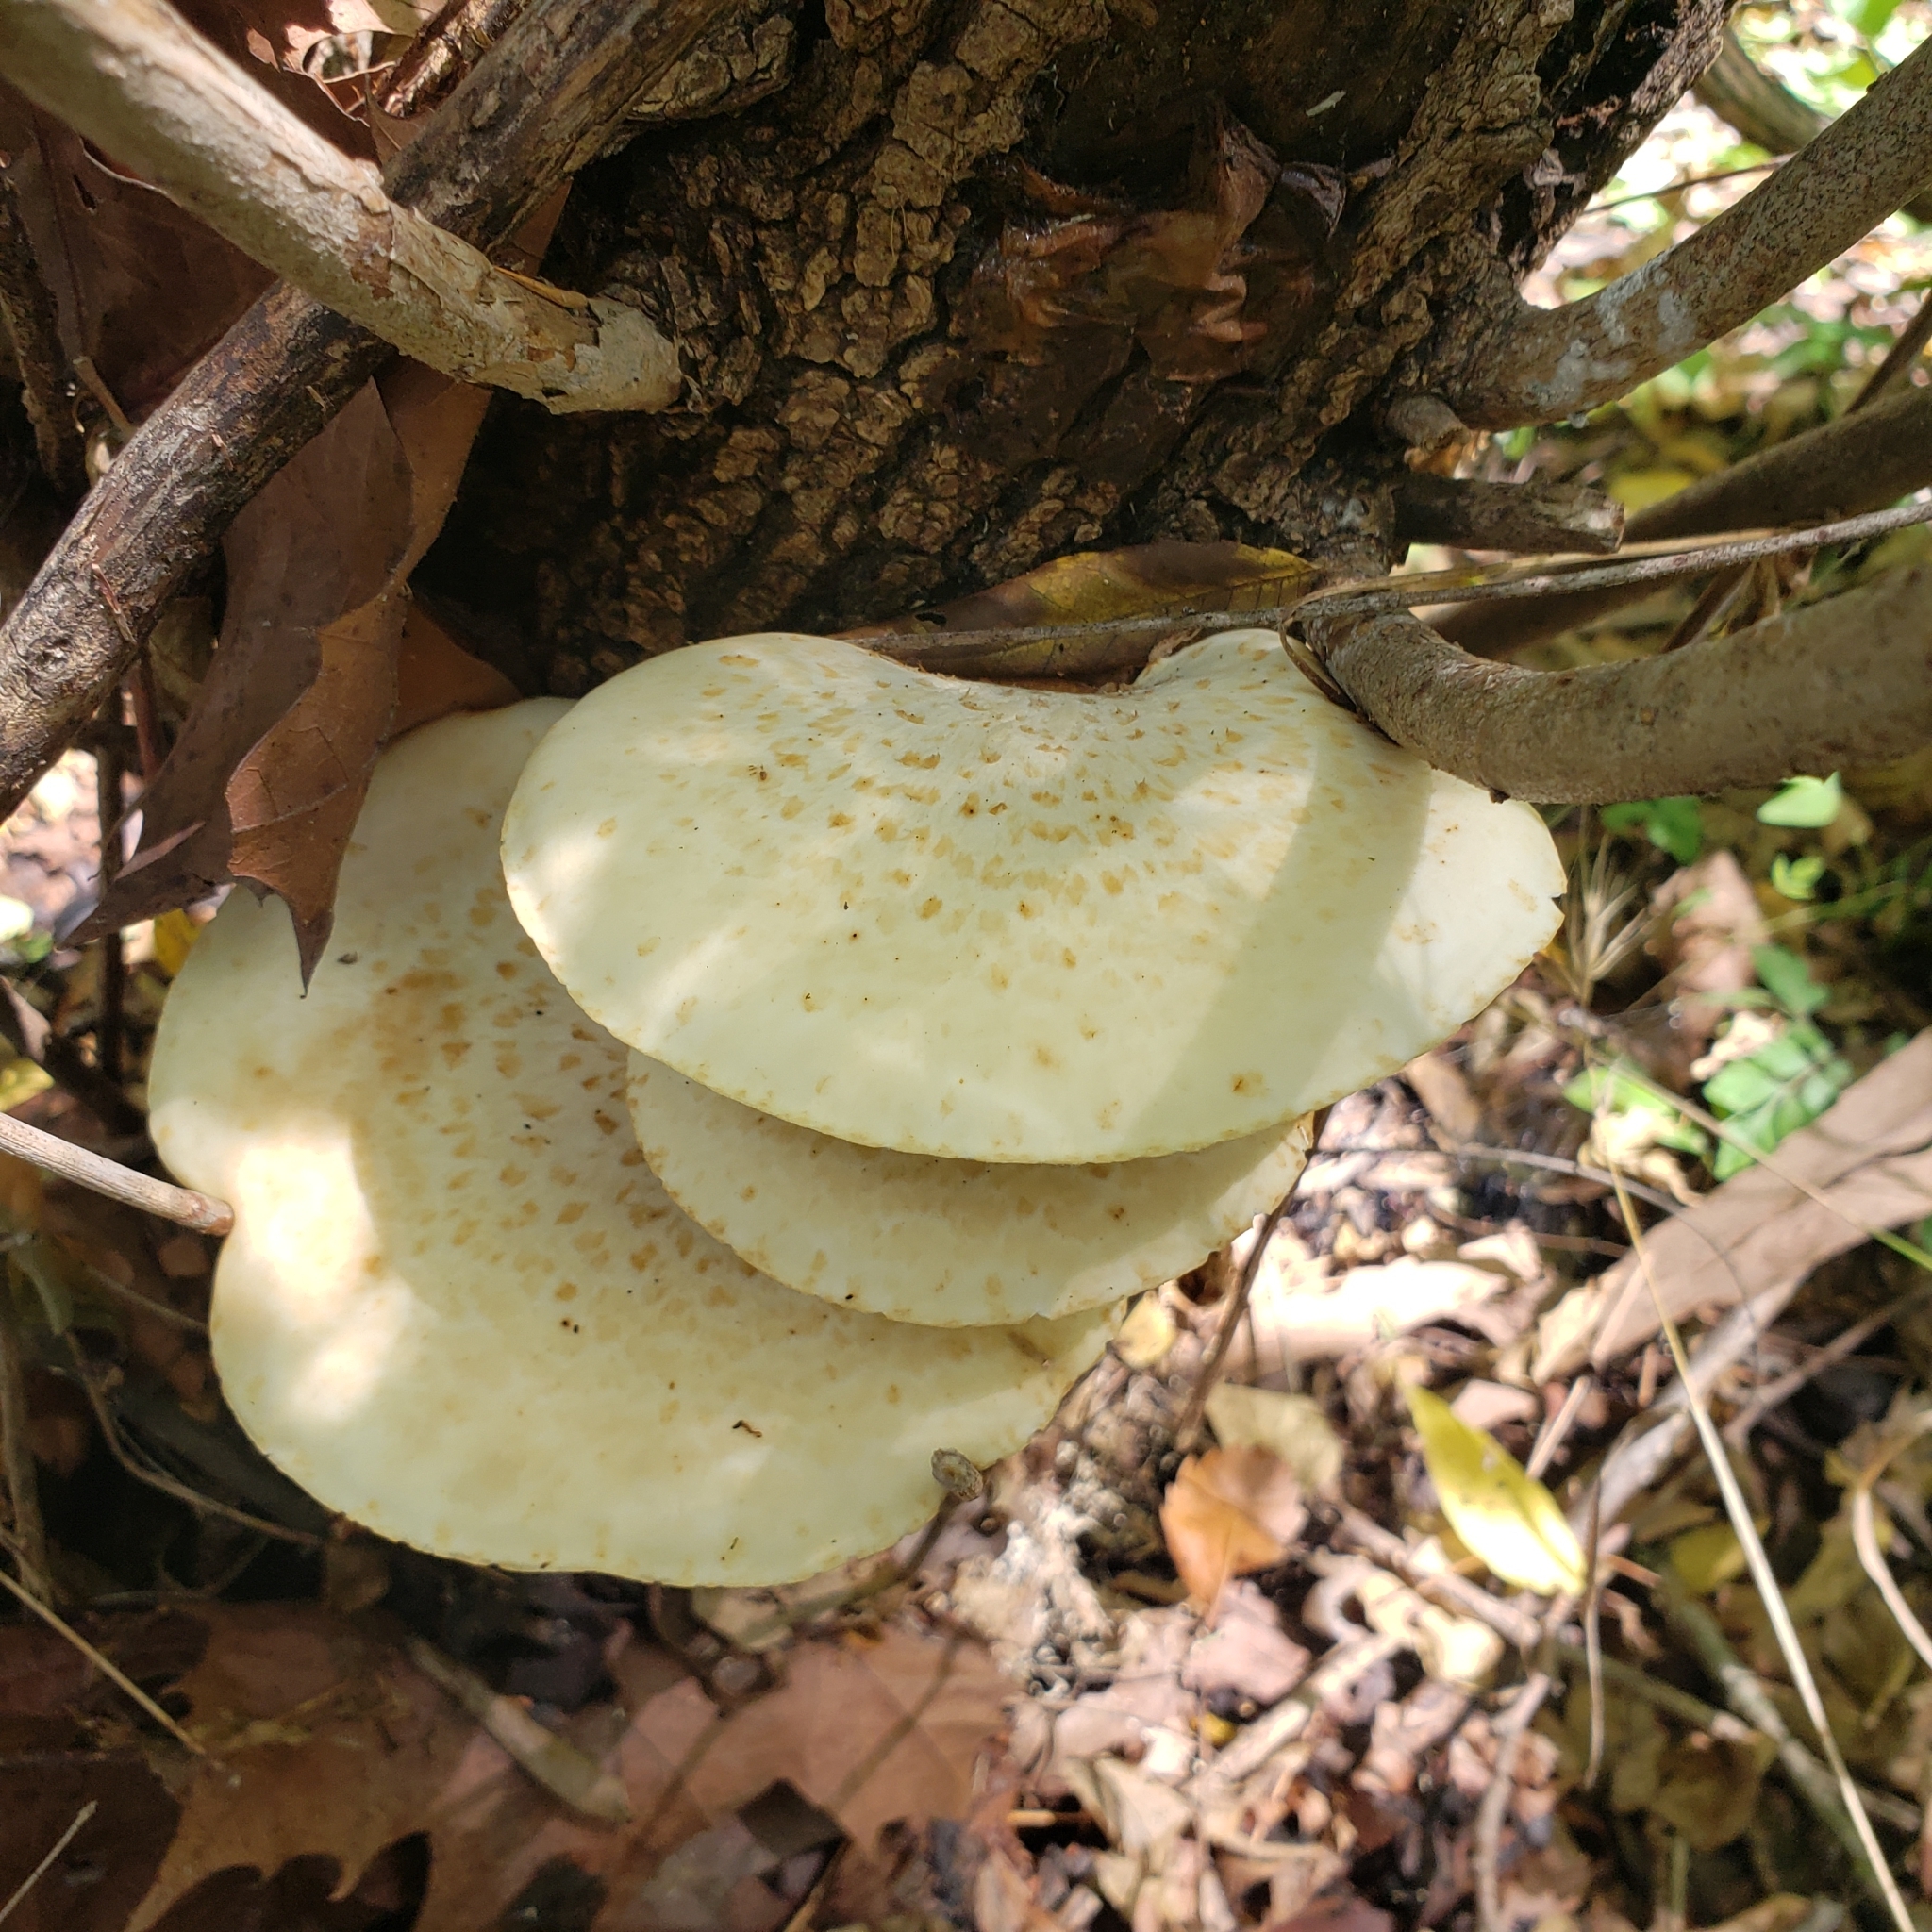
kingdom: Fungi
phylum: Basidiomycota
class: Agaricomycetes
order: Polyporales
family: Polyporaceae
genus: Cerioporus
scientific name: Cerioporus squamosus
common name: Dryad's saddle
